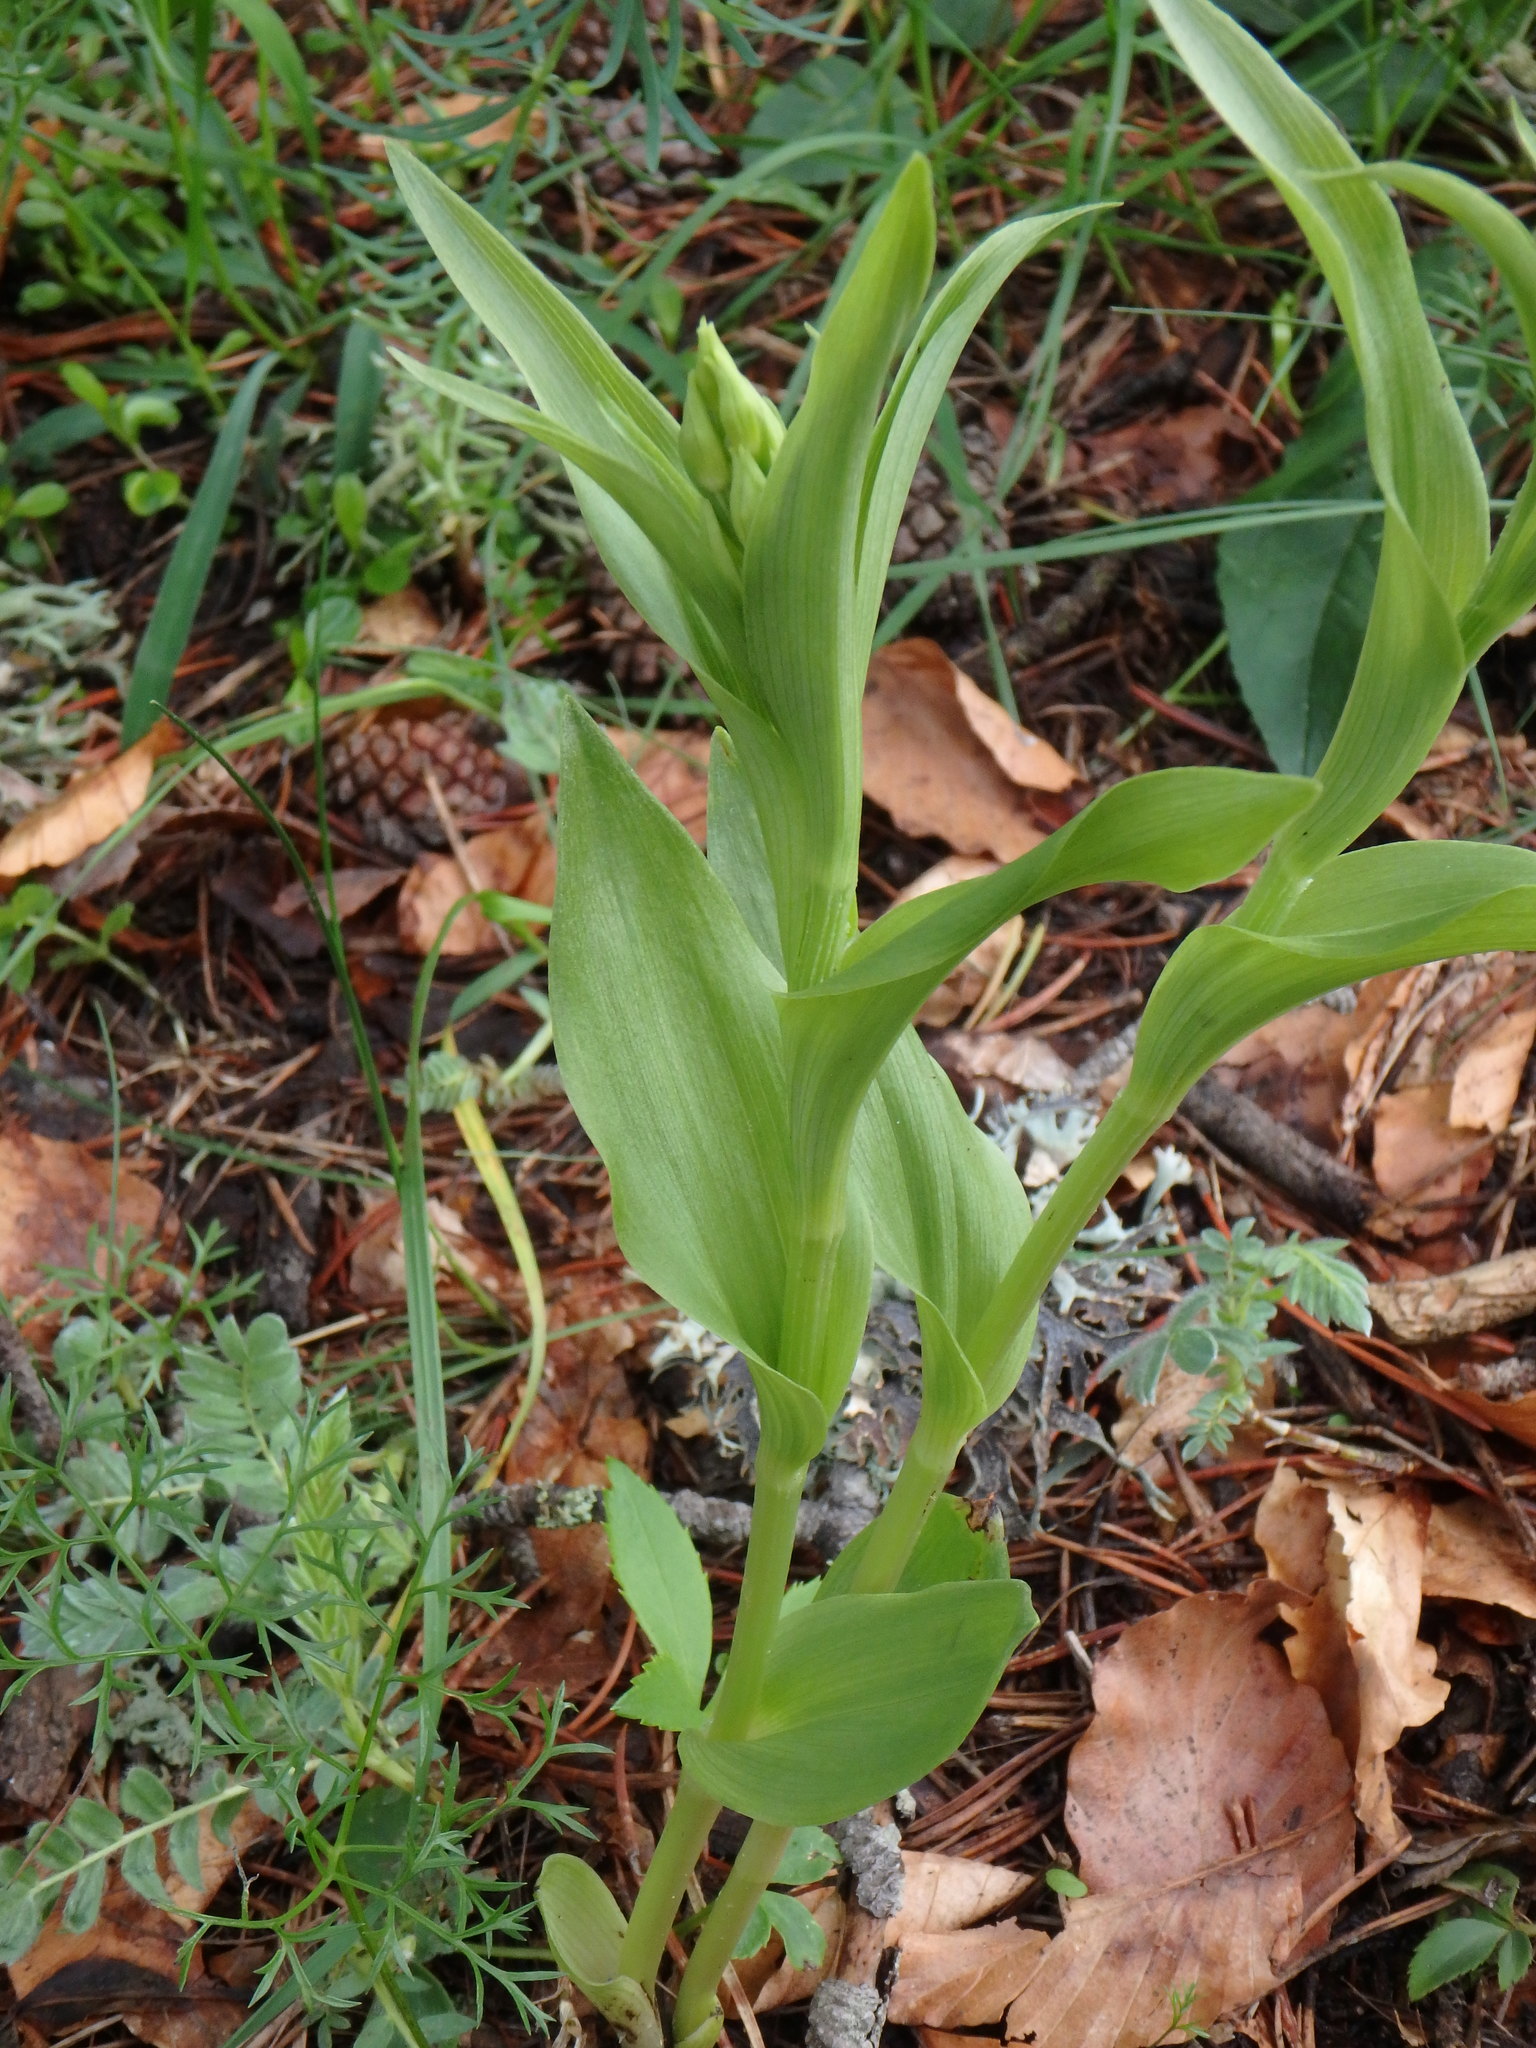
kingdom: Plantae
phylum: Tracheophyta
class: Liliopsida
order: Asparagales
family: Orchidaceae
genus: Cephalanthera
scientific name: Cephalanthera damasonium
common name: White helleborine
